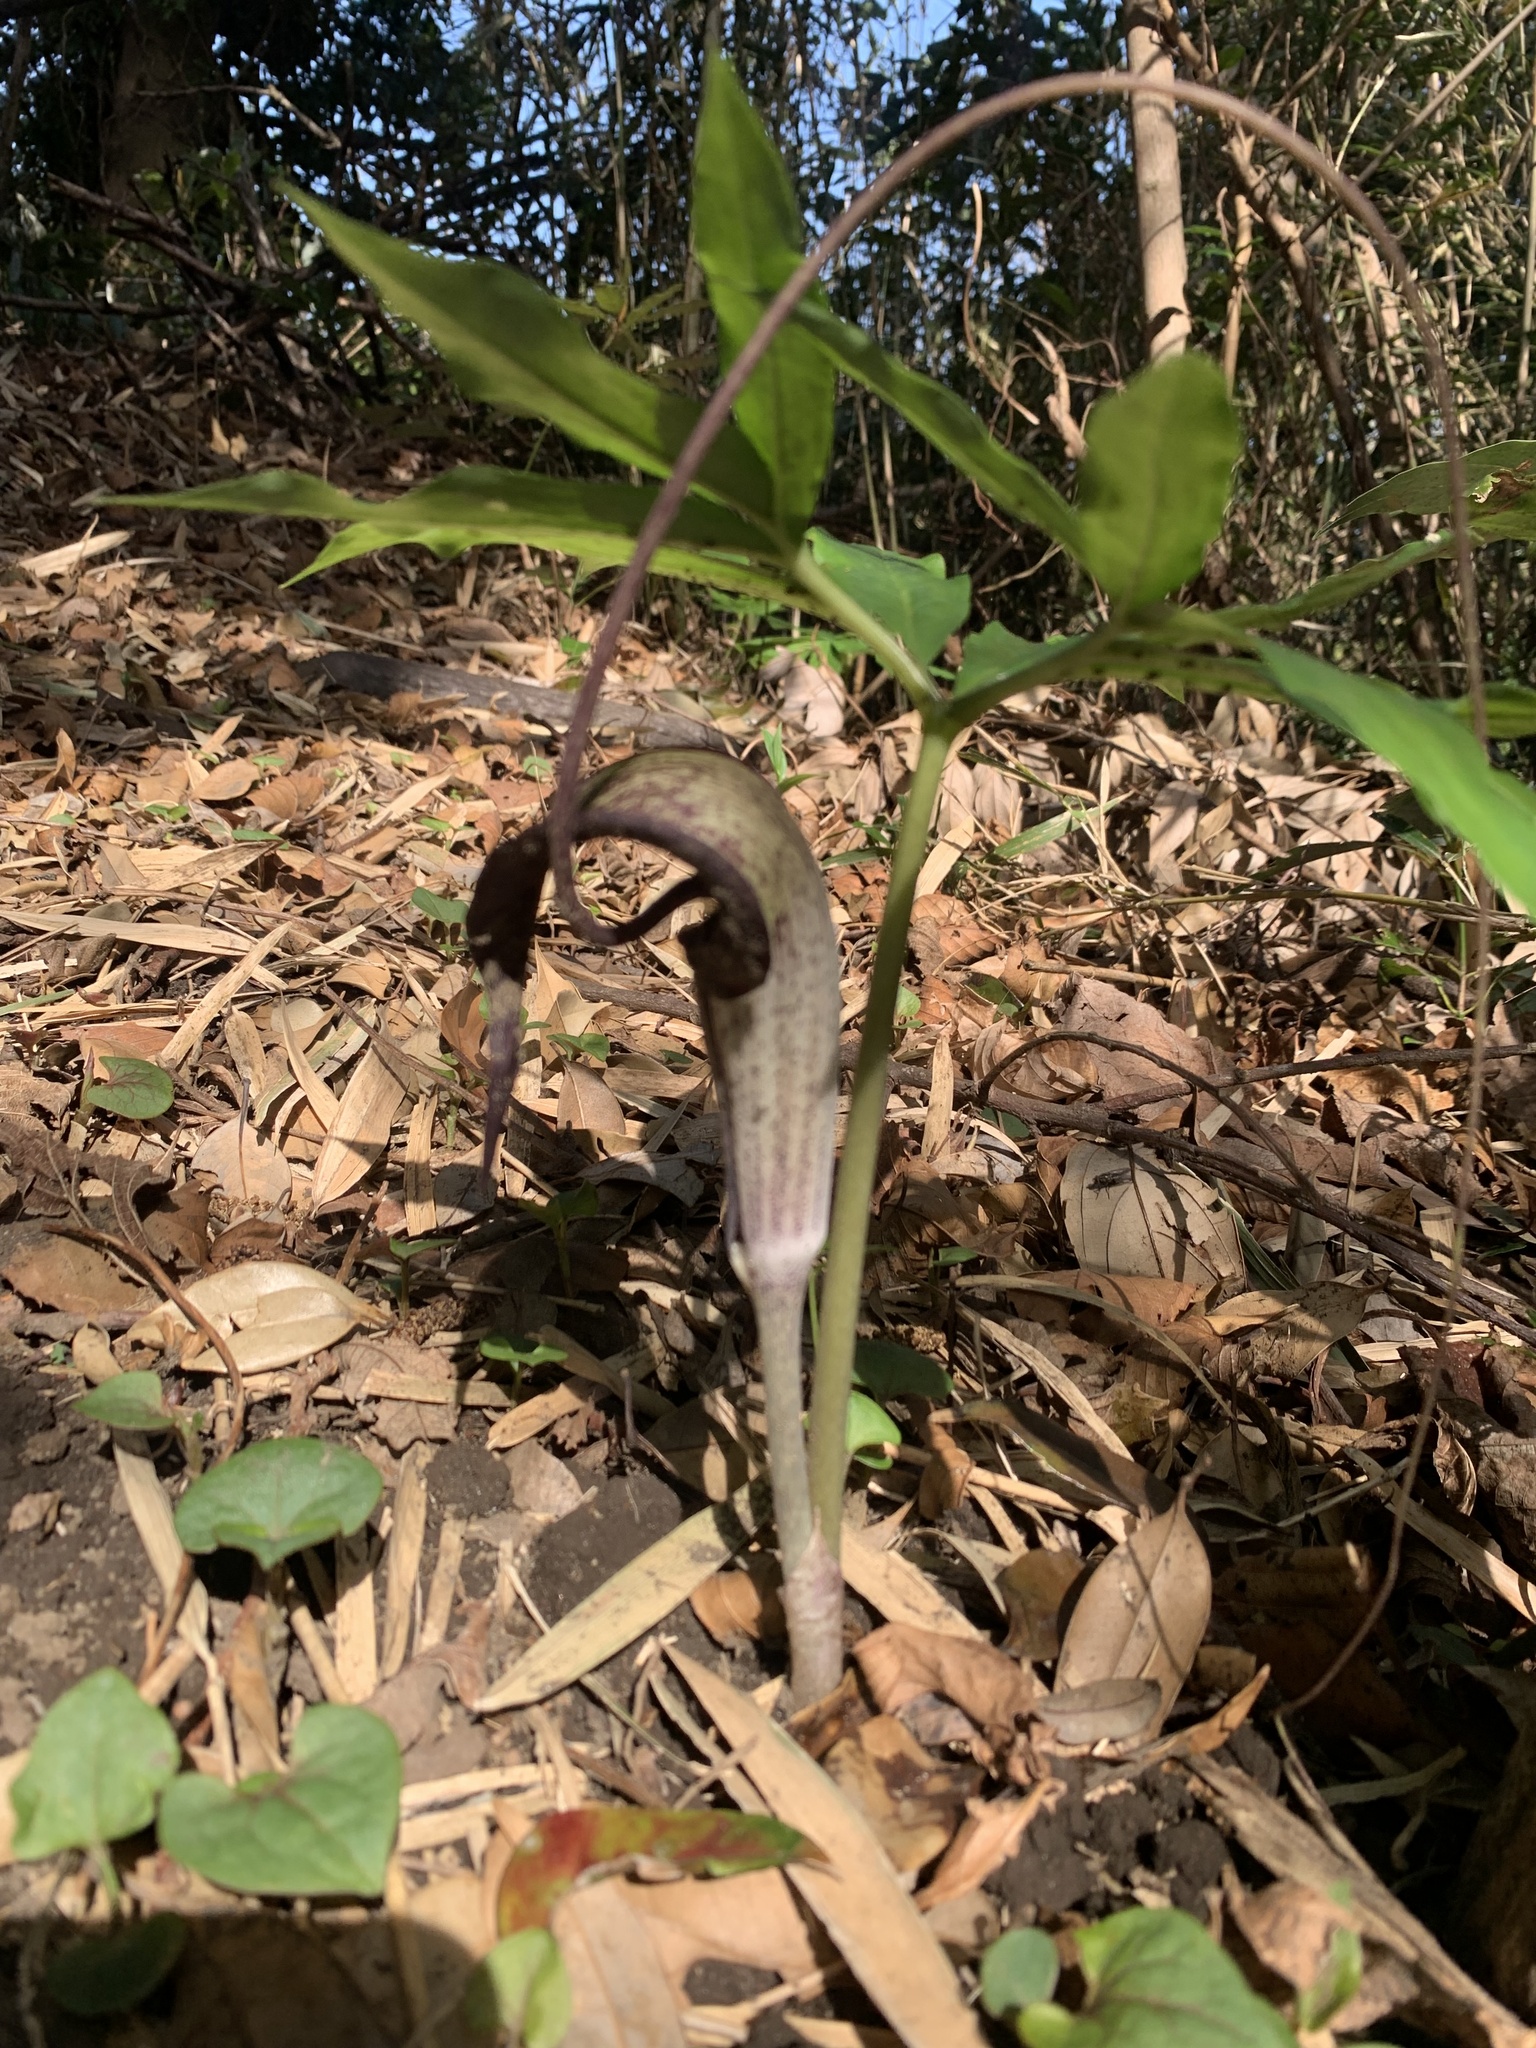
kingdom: Plantae
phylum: Tracheophyta
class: Liliopsida
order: Alismatales
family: Araceae
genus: Arisaema
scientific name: Arisaema thunbergii
